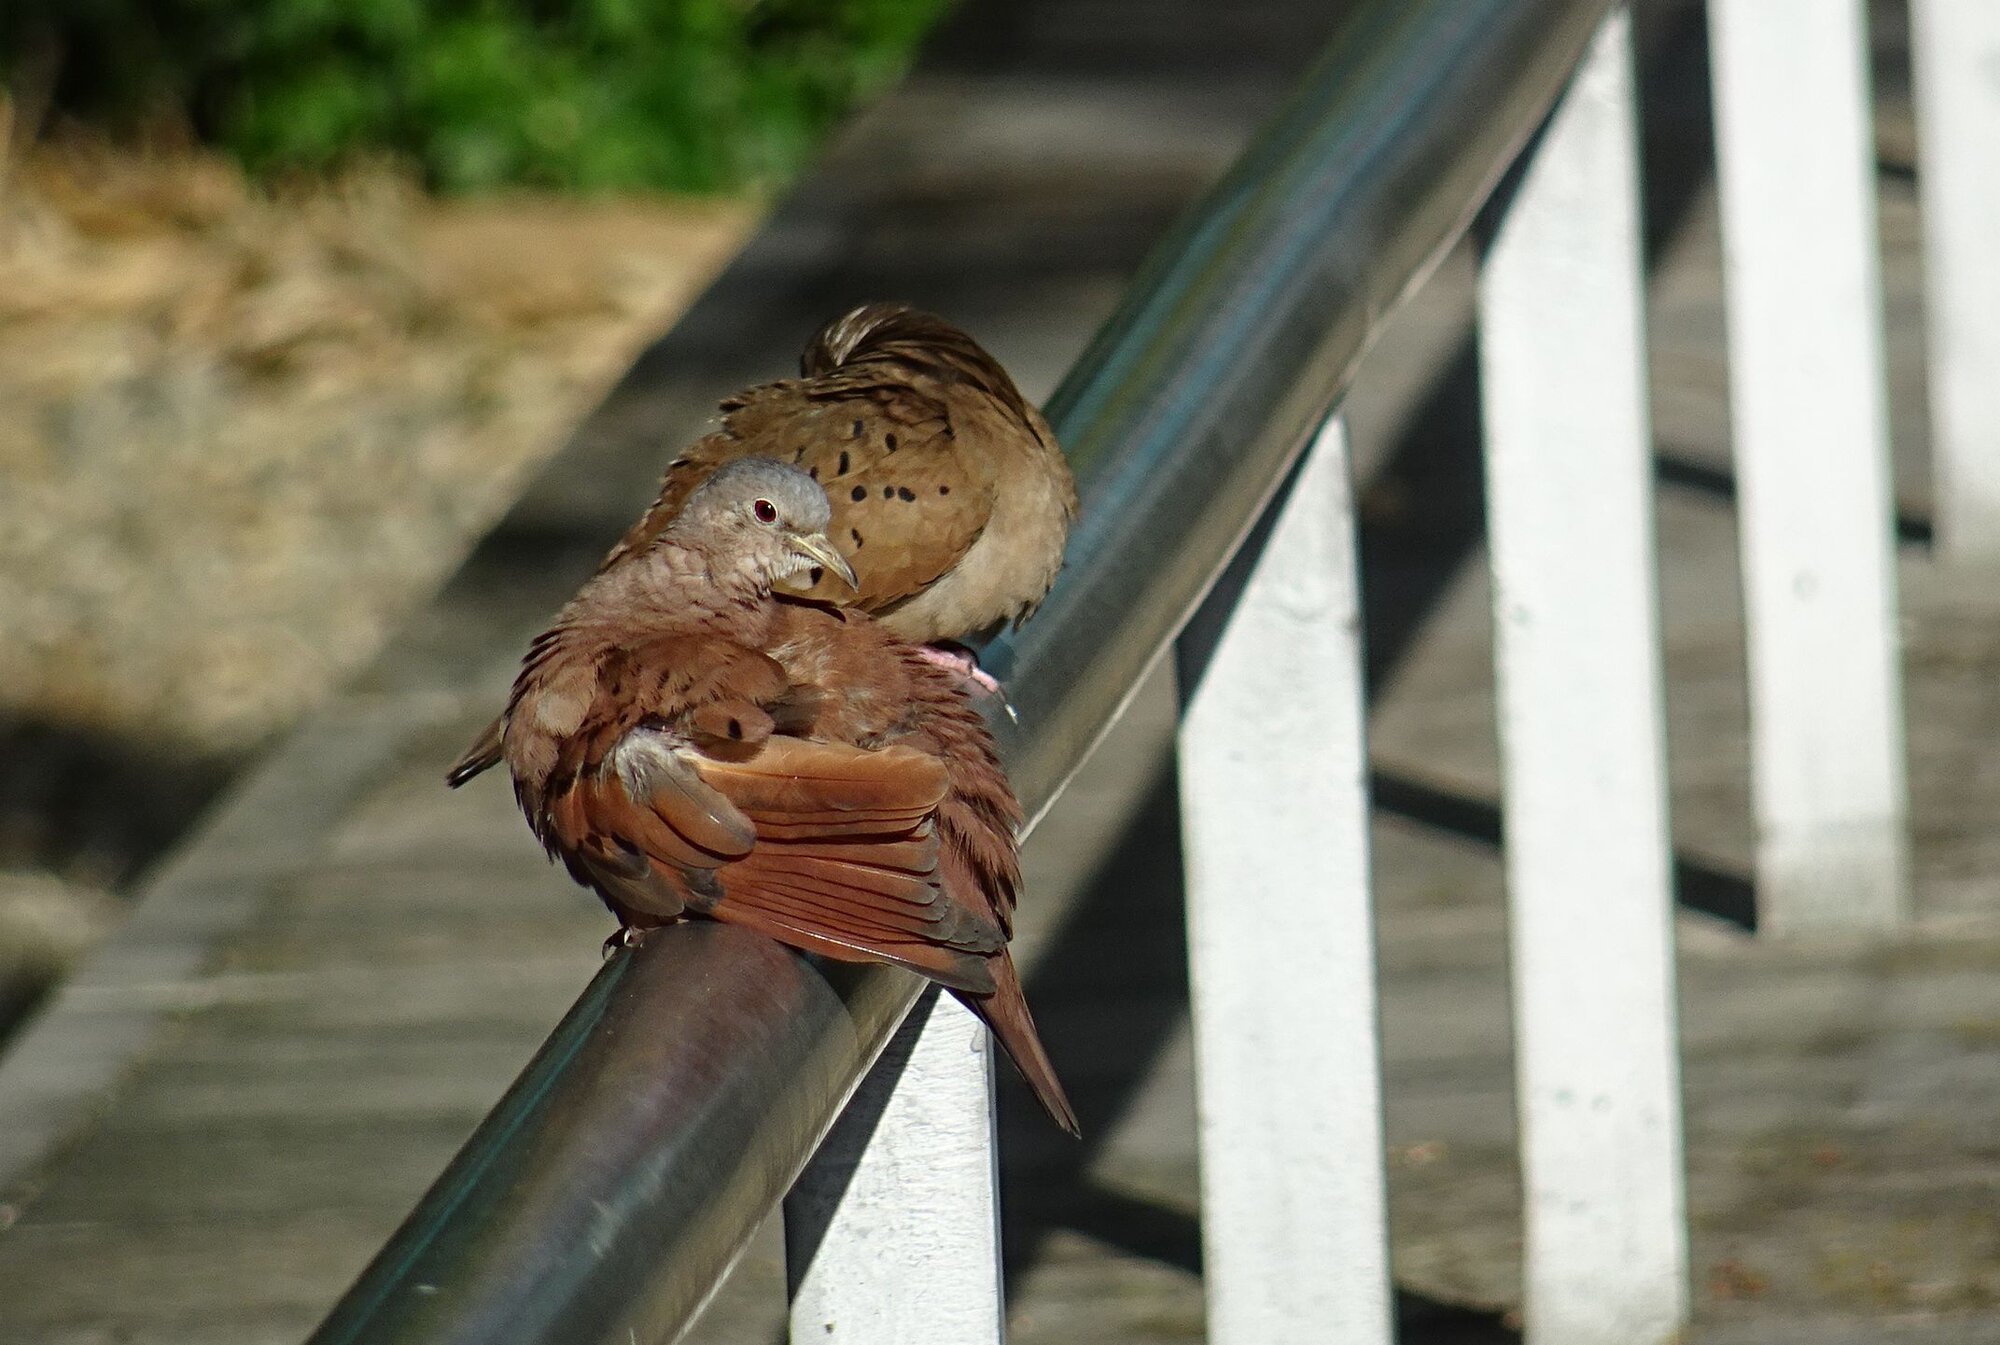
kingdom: Animalia
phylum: Chordata
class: Aves
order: Columbiformes
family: Columbidae
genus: Columbina
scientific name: Columbina talpacoti
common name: Ruddy ground dove
